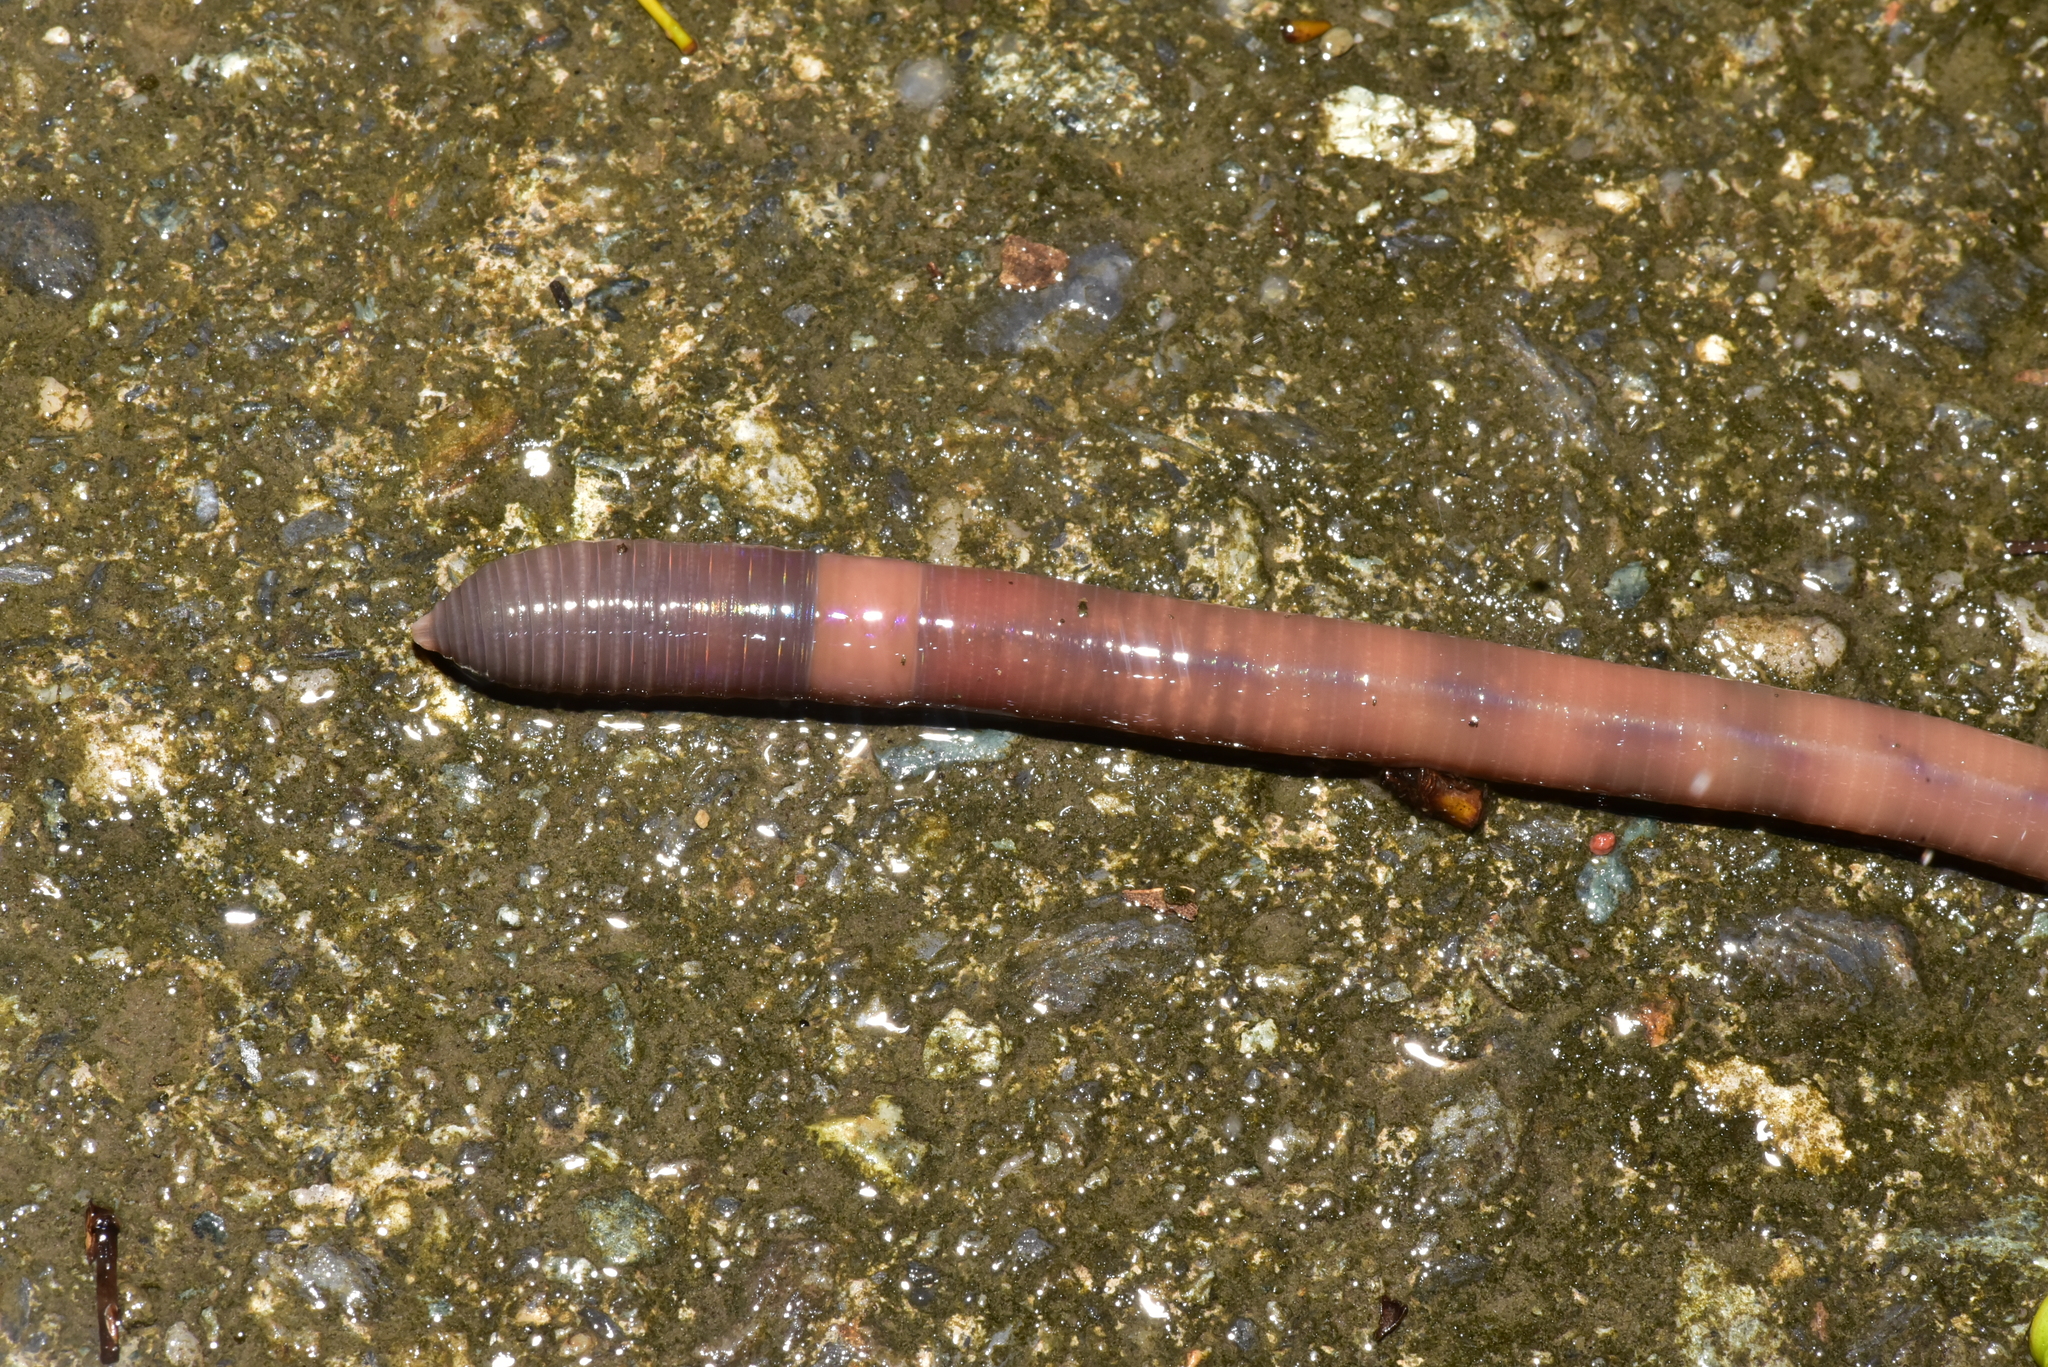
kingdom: Animalia
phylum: Annelida
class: Clitellata
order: Crassiclitellata
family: Megascolecidae
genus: Amynthas
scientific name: Amynthas aspergillus
